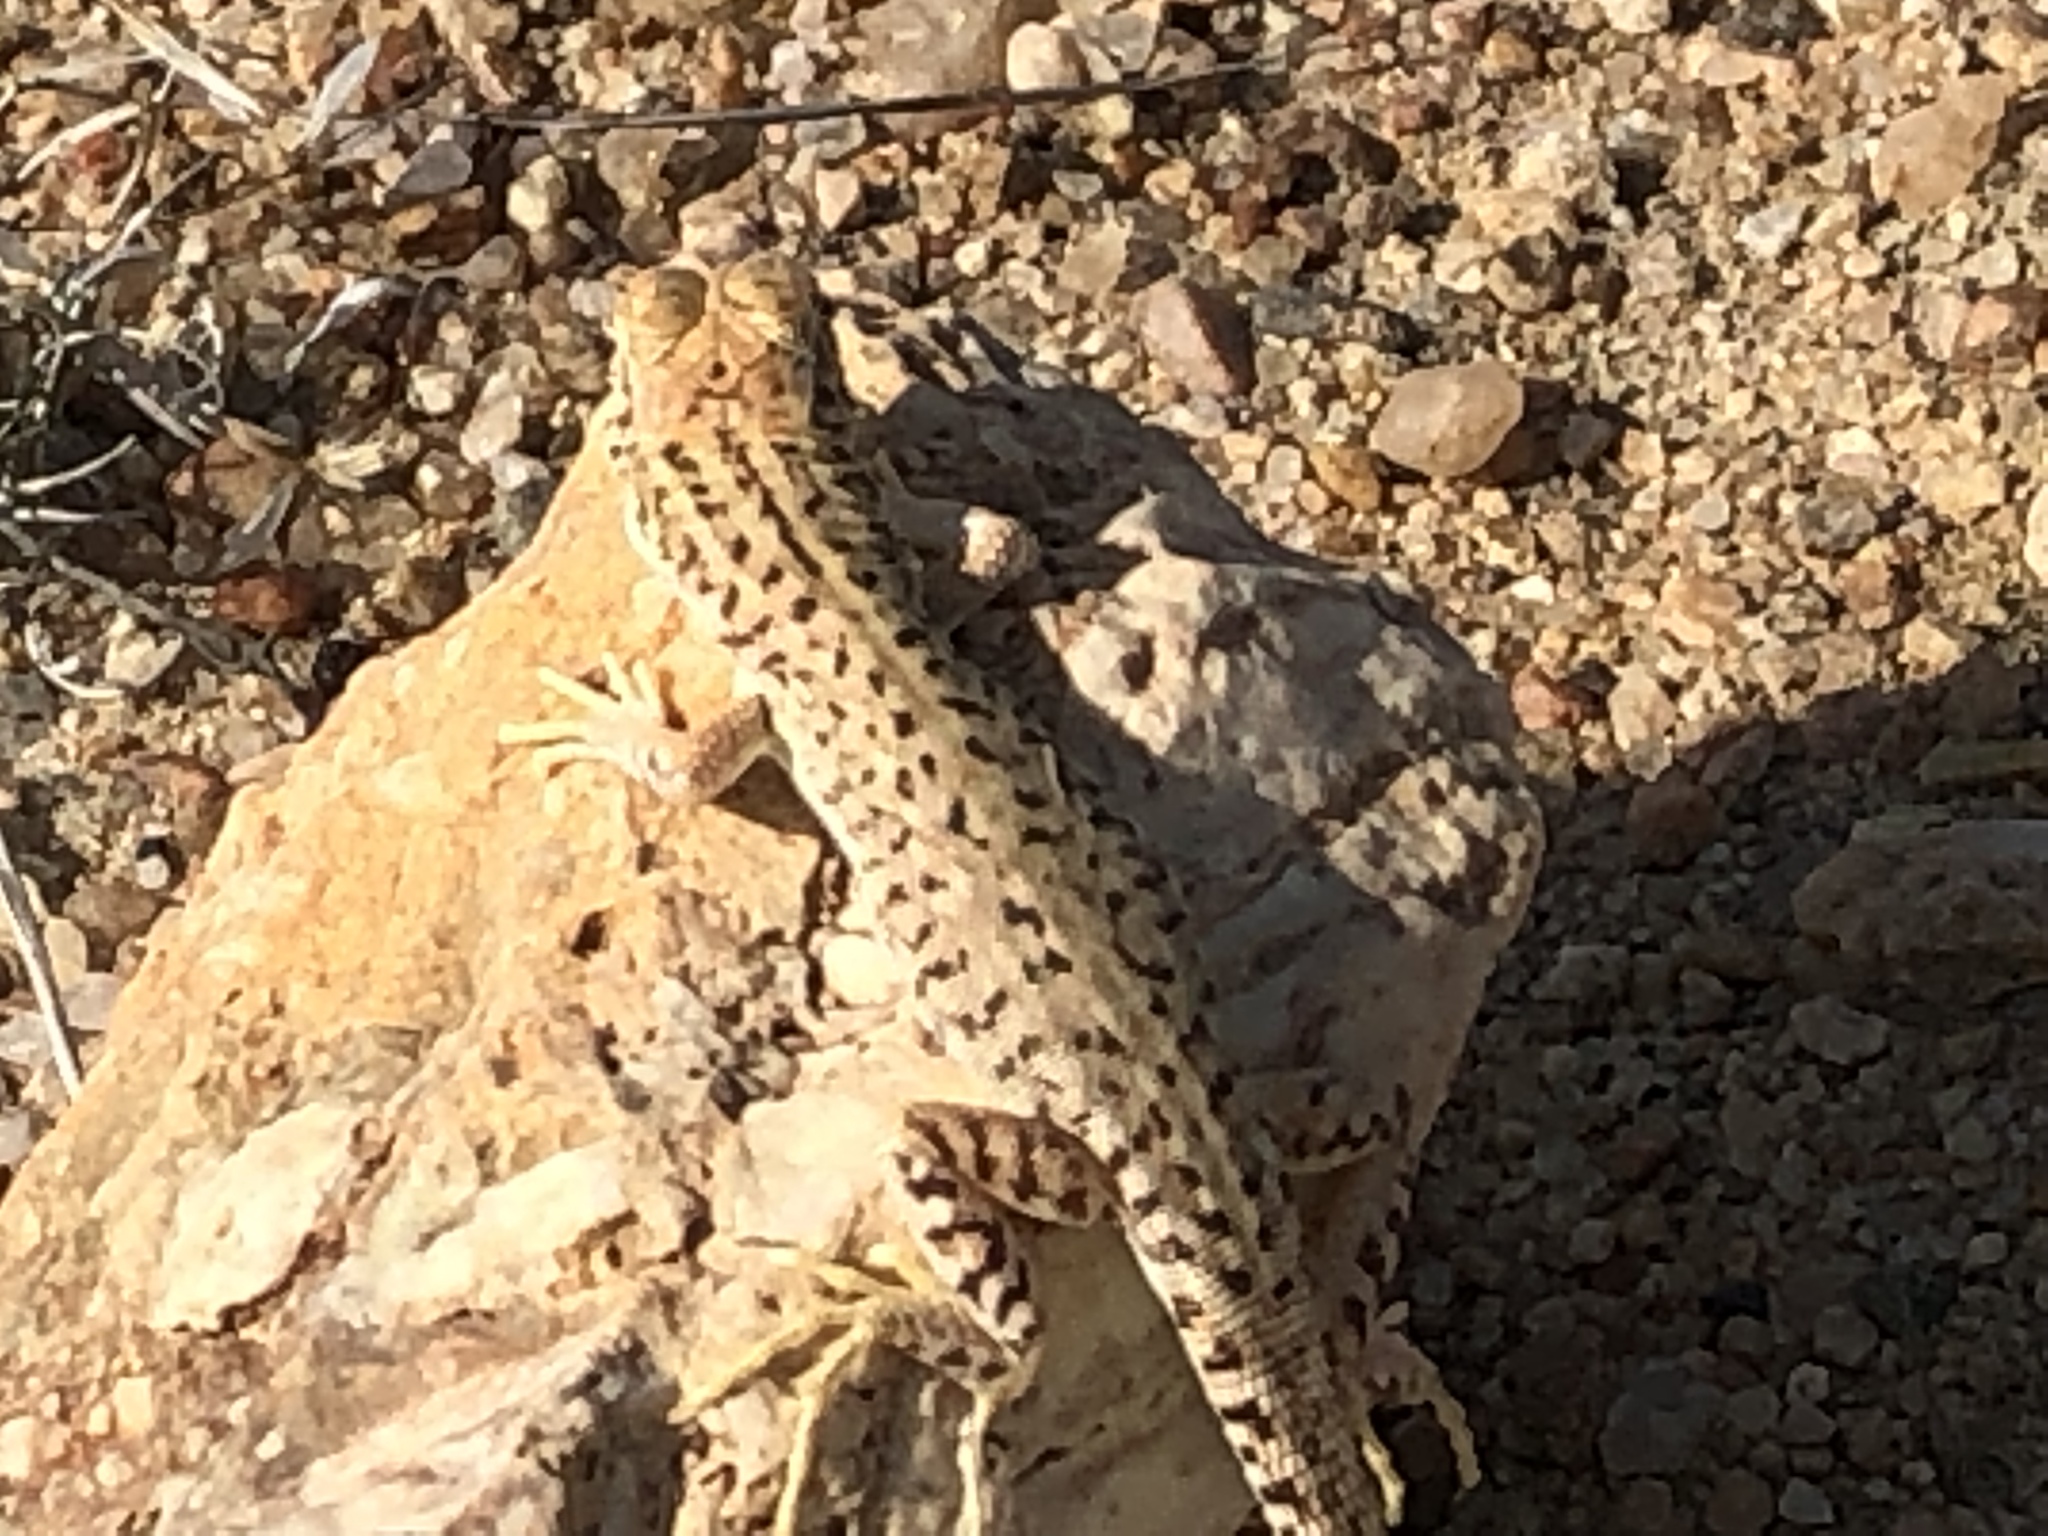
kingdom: Animalia
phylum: Chordata
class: Squamata
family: Lacertidae
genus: Meroles
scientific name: Meroles suborbitalis
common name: Spotted sand lizard
